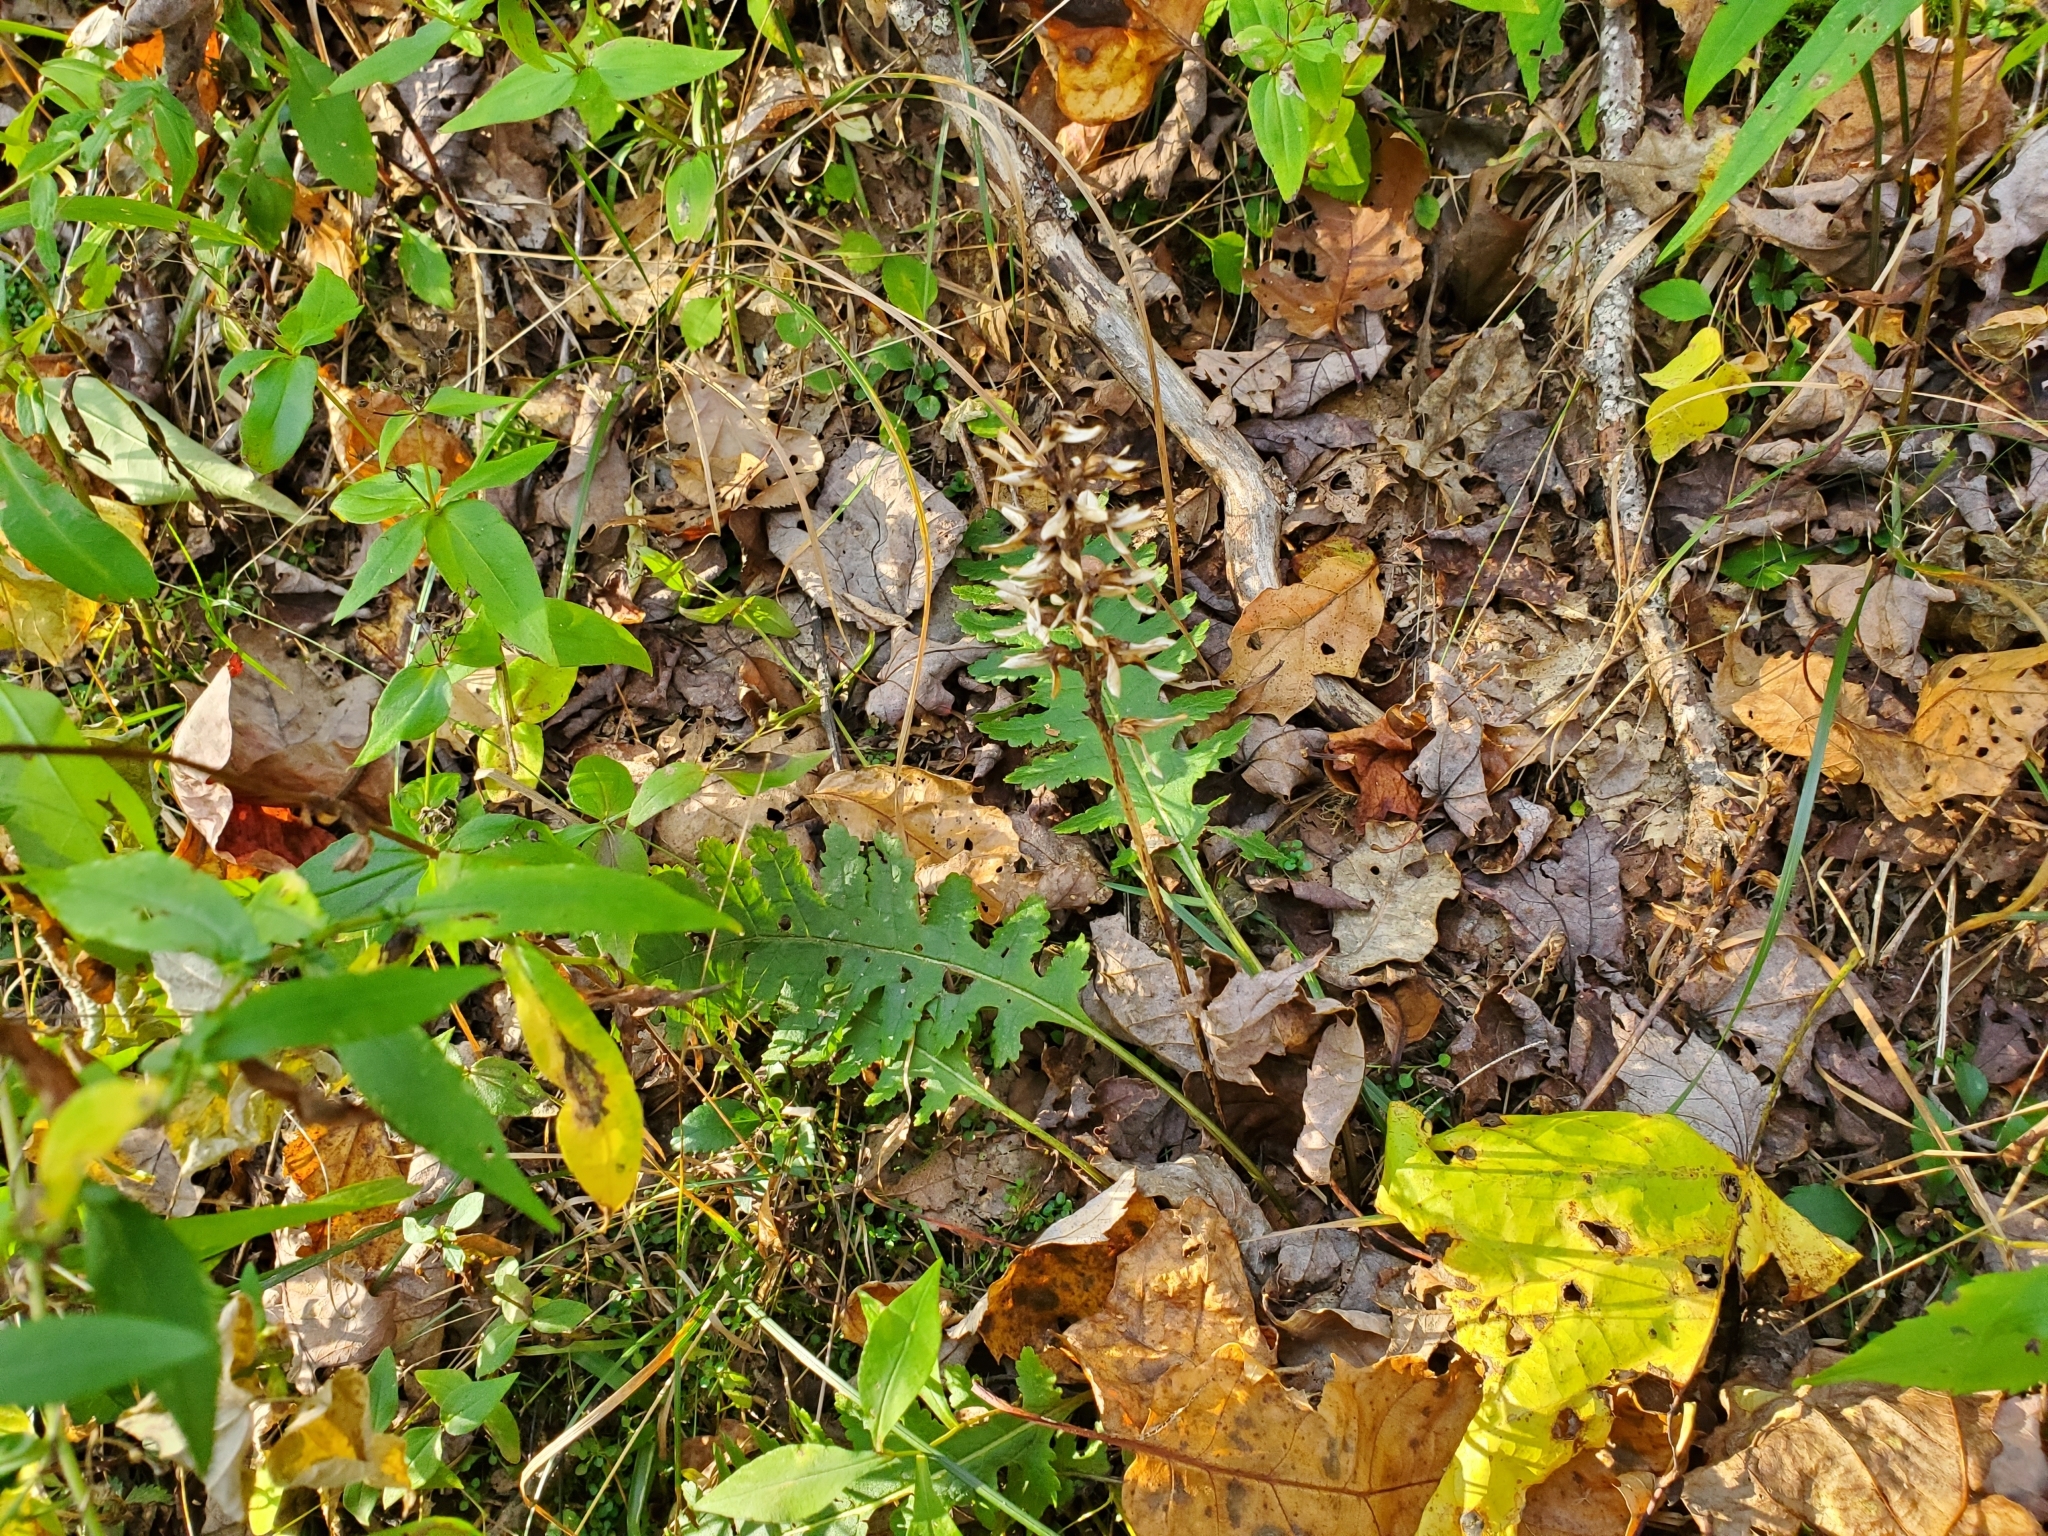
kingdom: Plantae
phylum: Tracheophyta
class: Magnoliopsida
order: Lamiales
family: Orobanchaceae
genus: Pedicularis
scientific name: Pedicularis canadensis
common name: Early lousewort
